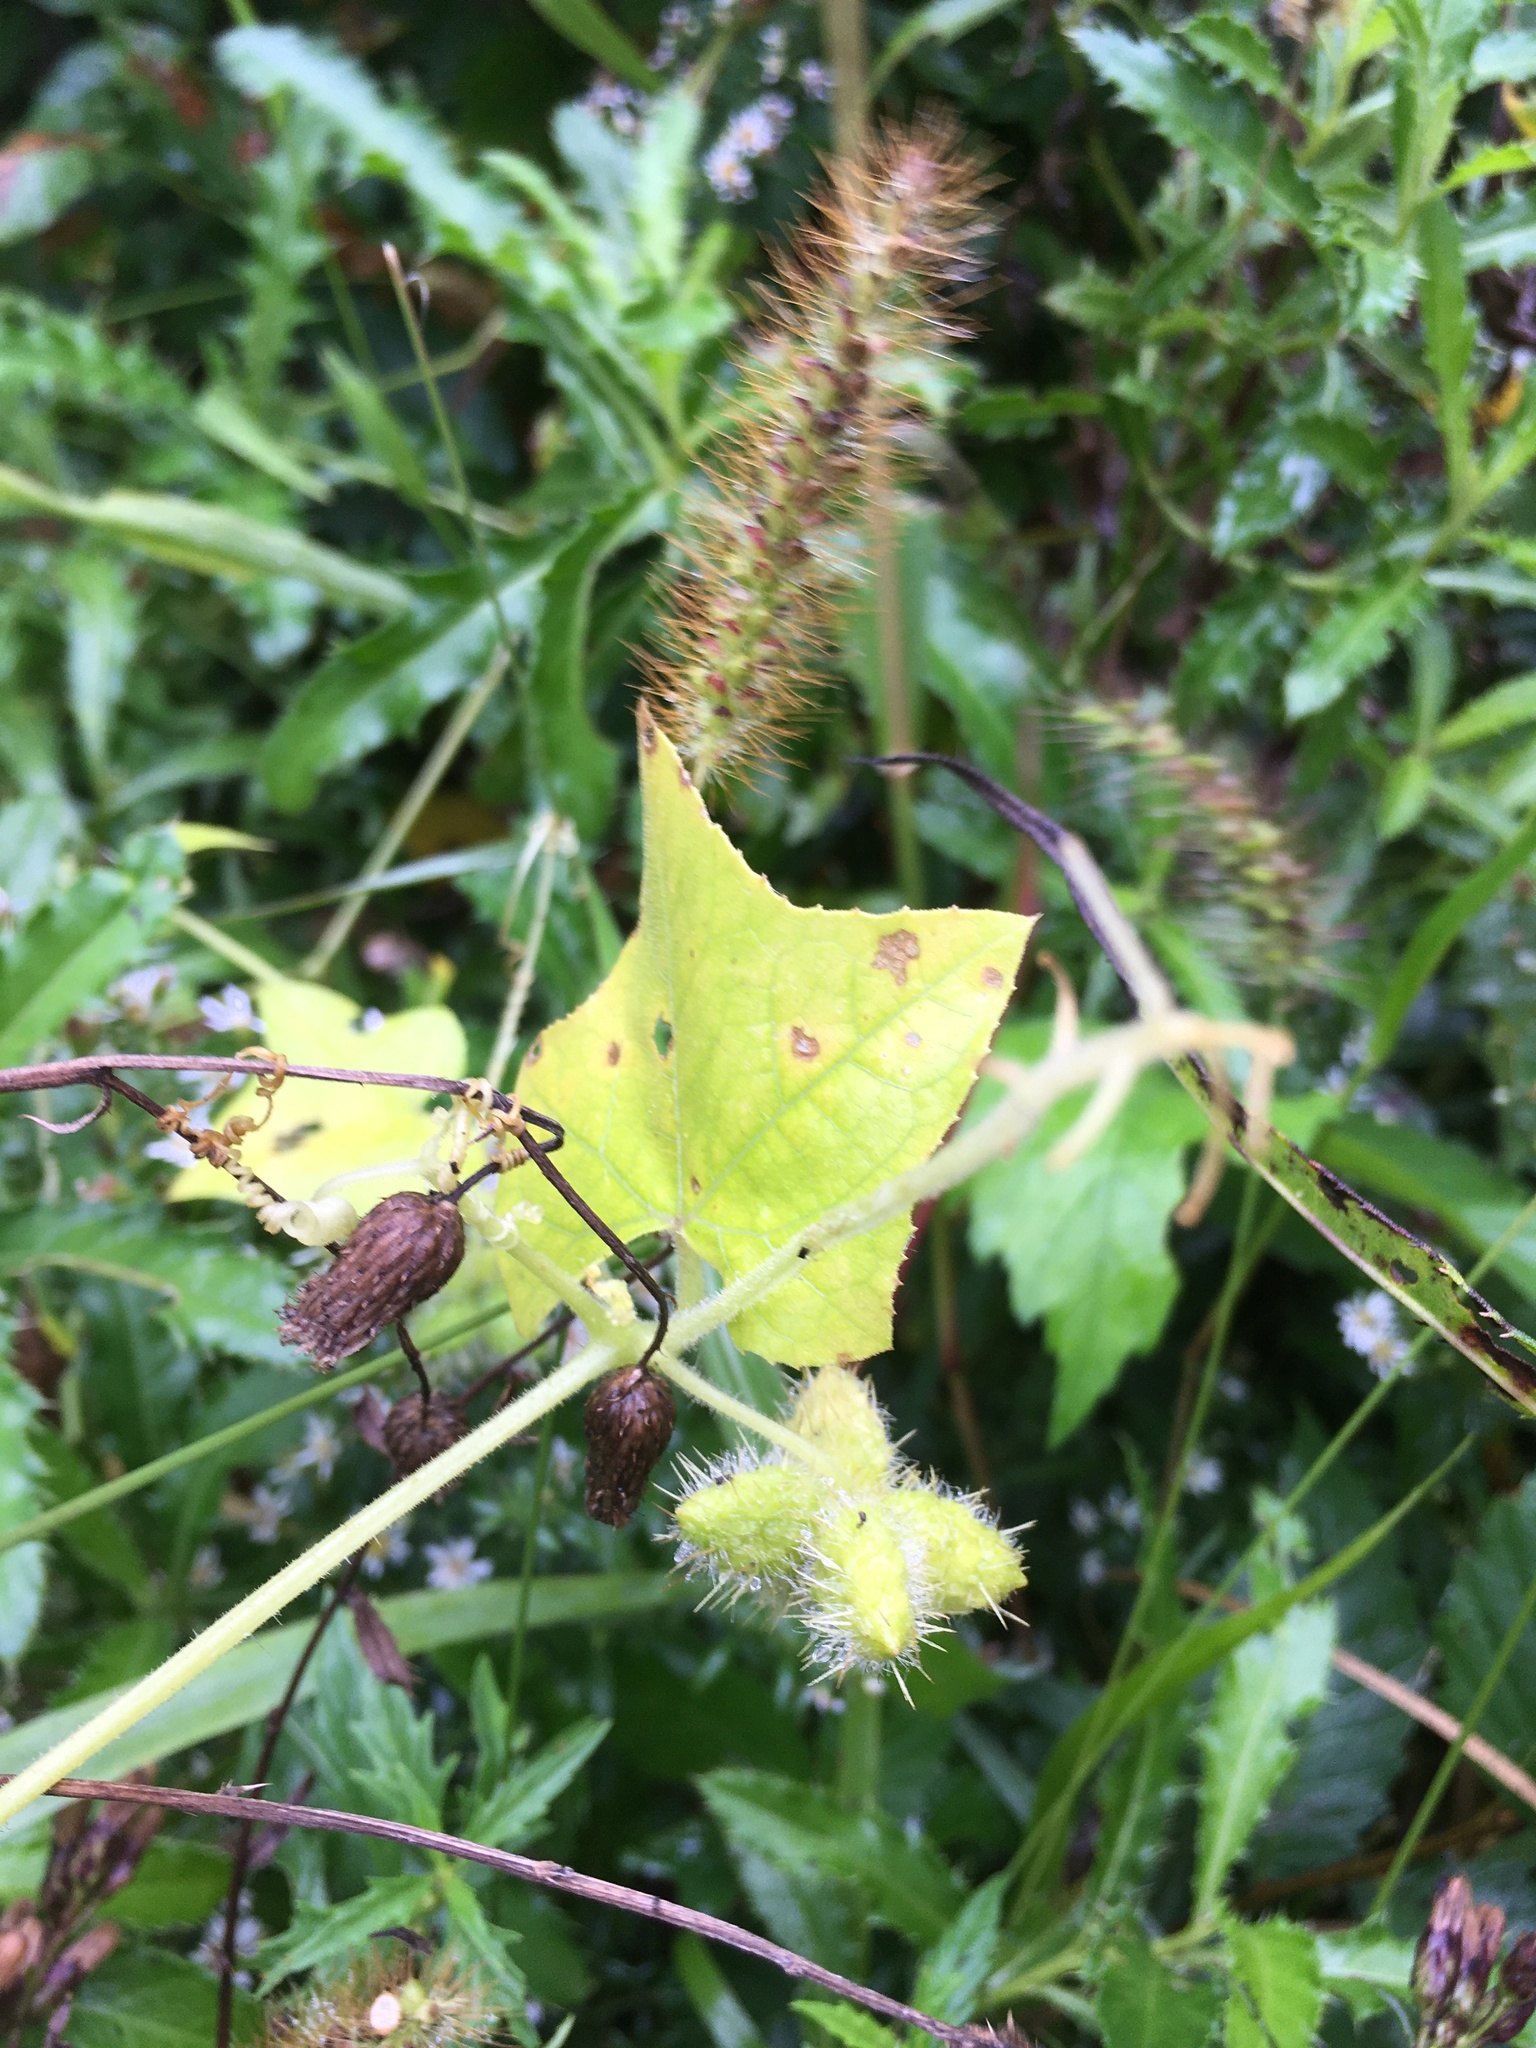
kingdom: Plantae
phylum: Tracheophyta
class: Magnoliopsida
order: Cucurbitales
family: Cucurbitaceae
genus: Sicyos
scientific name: Sicyos angulatus
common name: Angled burr cucumber
